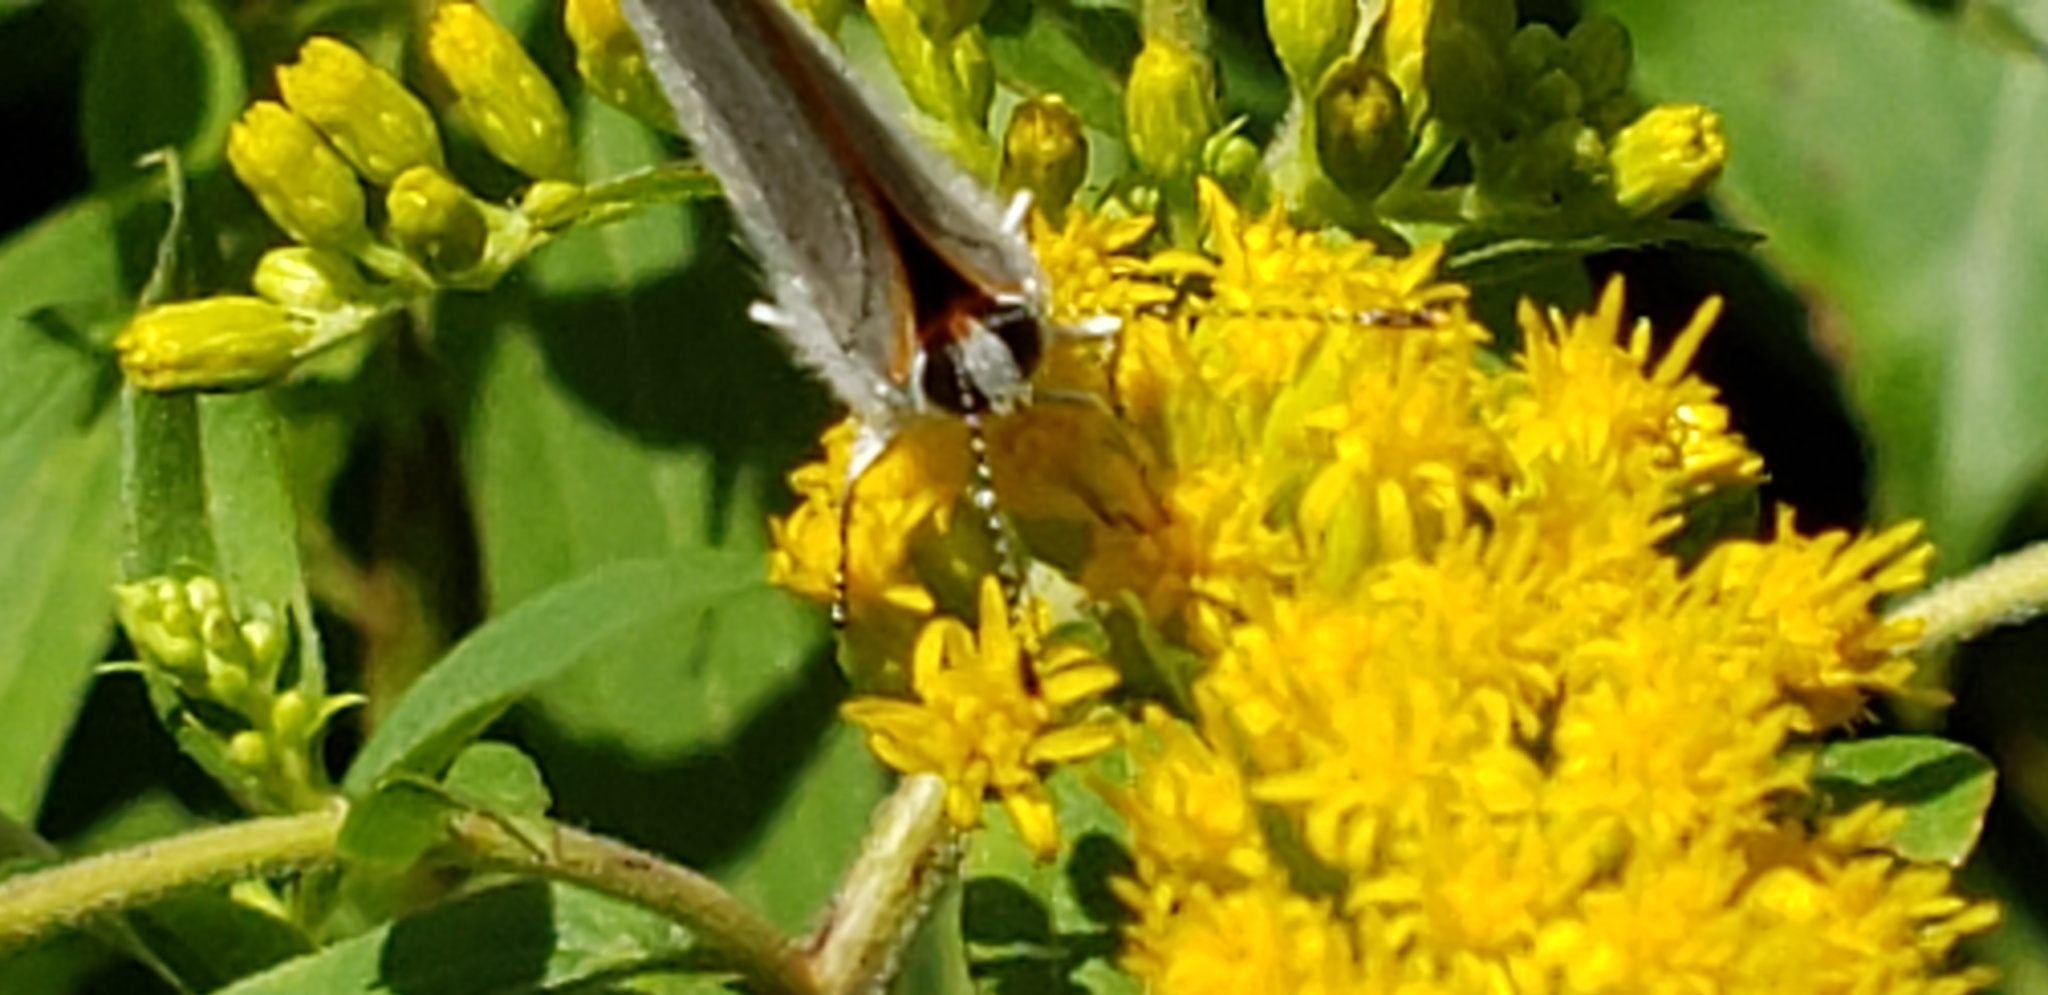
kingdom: Animalia
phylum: Arthropoda
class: Insecta
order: Lepidoptera
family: Lycaenidae
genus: Strymon
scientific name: Strymon melinus
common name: Gray hairstreak
